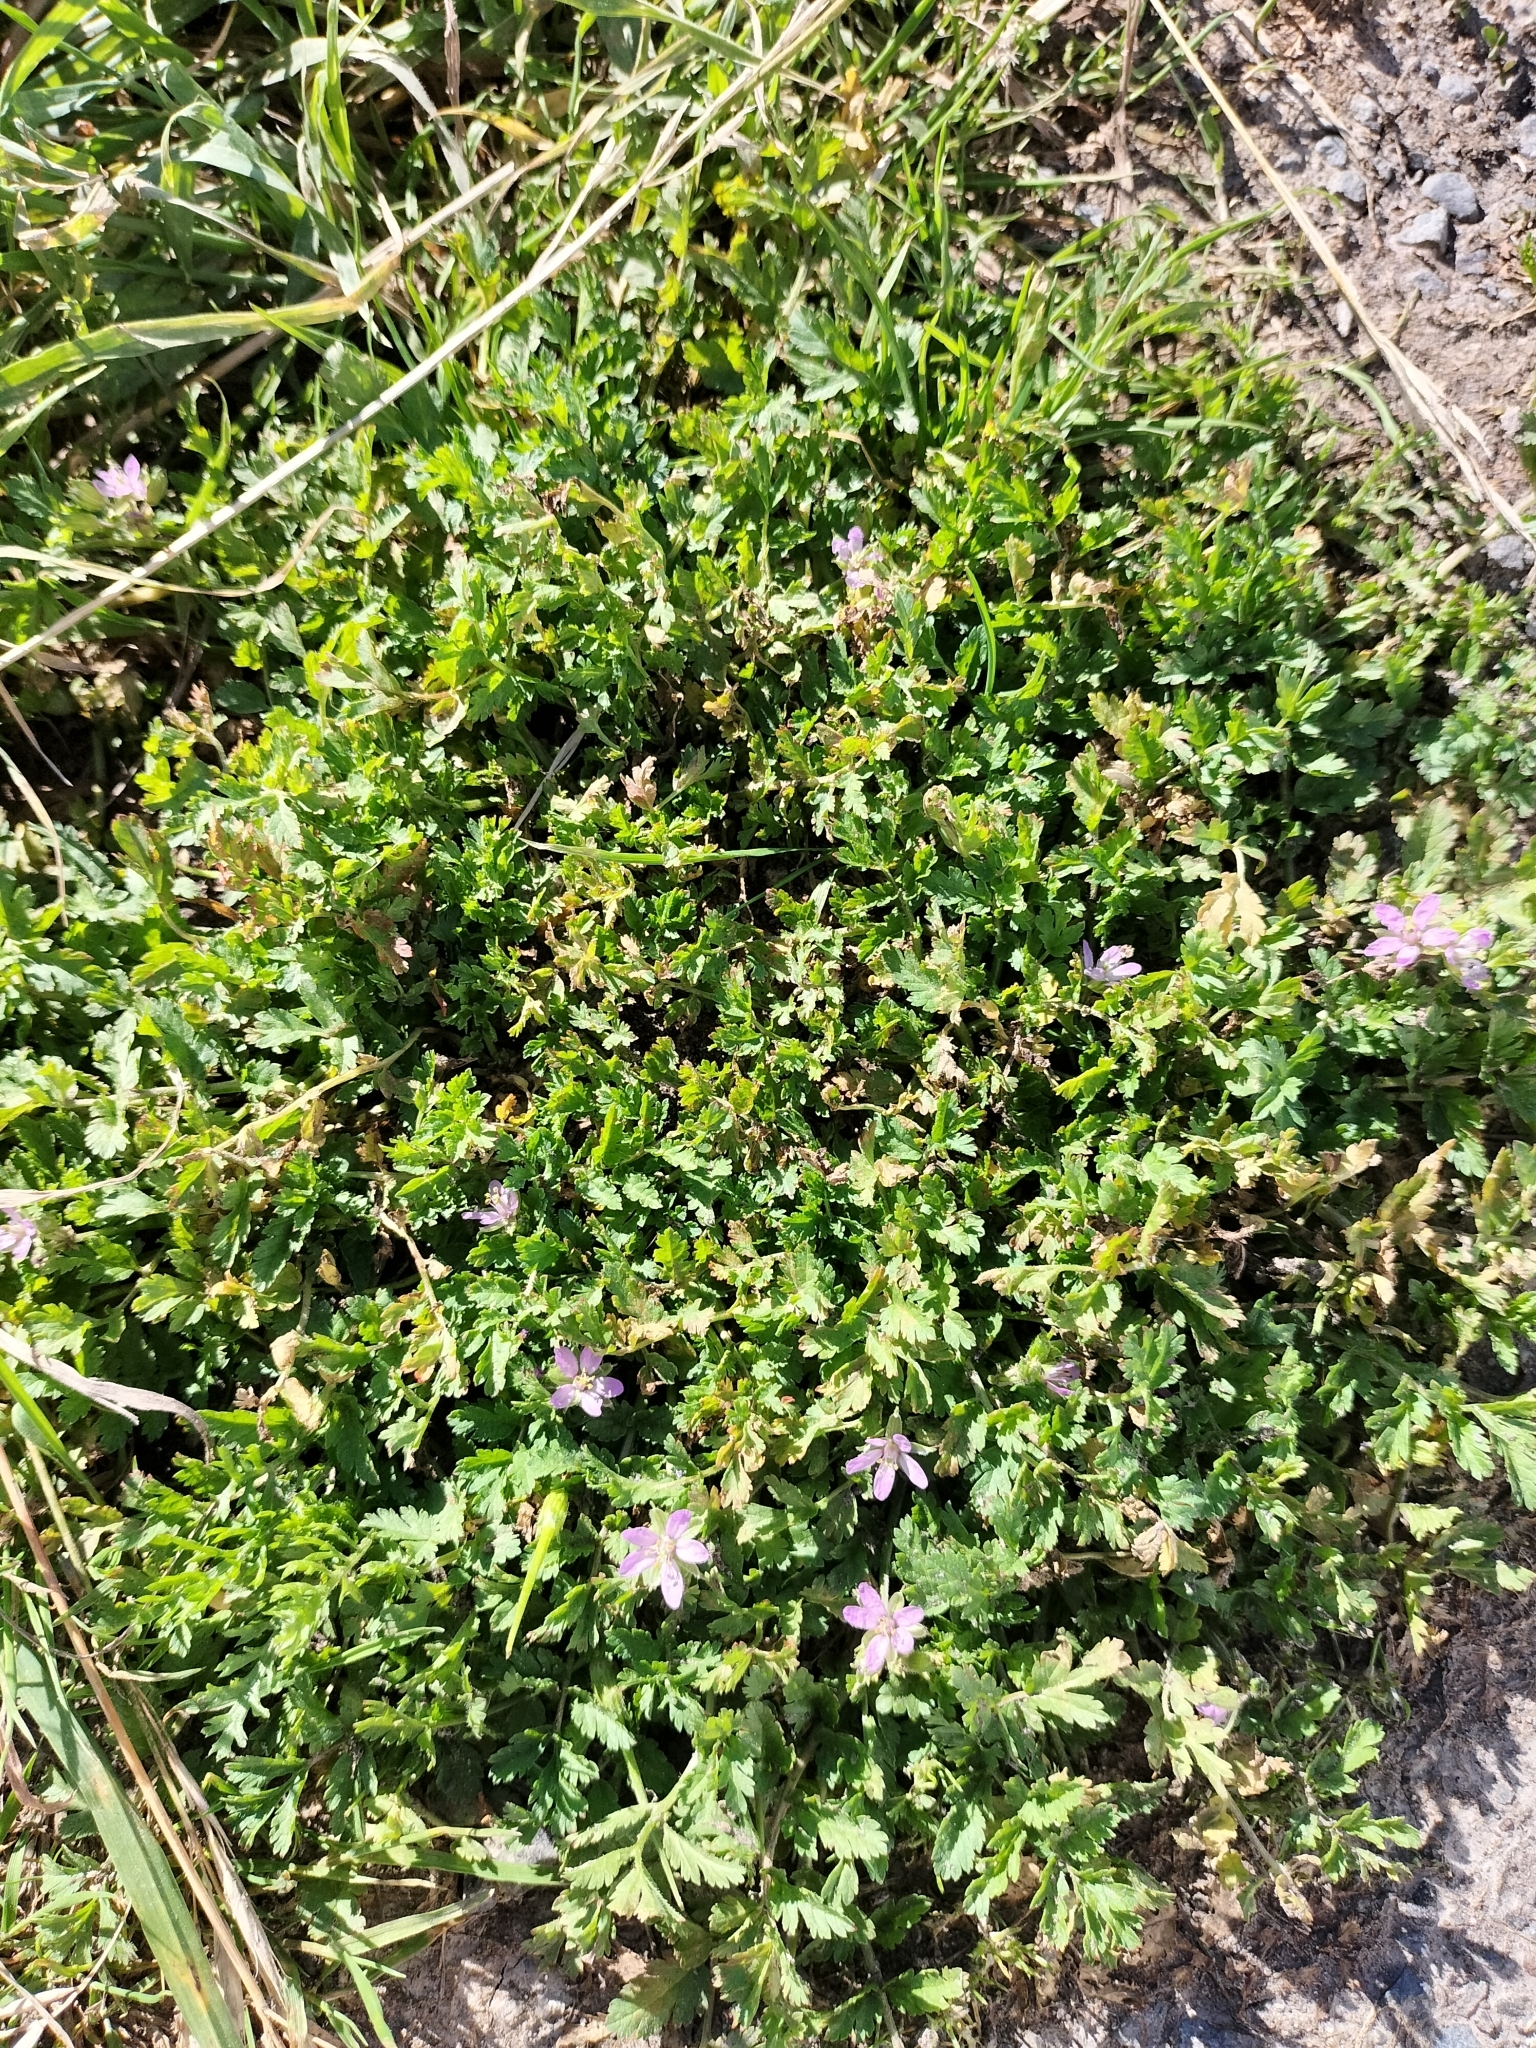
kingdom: Plantae
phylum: Tracheophyta
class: Magnoliopsida
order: Geraniales
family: Geraniaceae
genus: Erodium
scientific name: Erodium moschatum
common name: Musk stork's-bill
